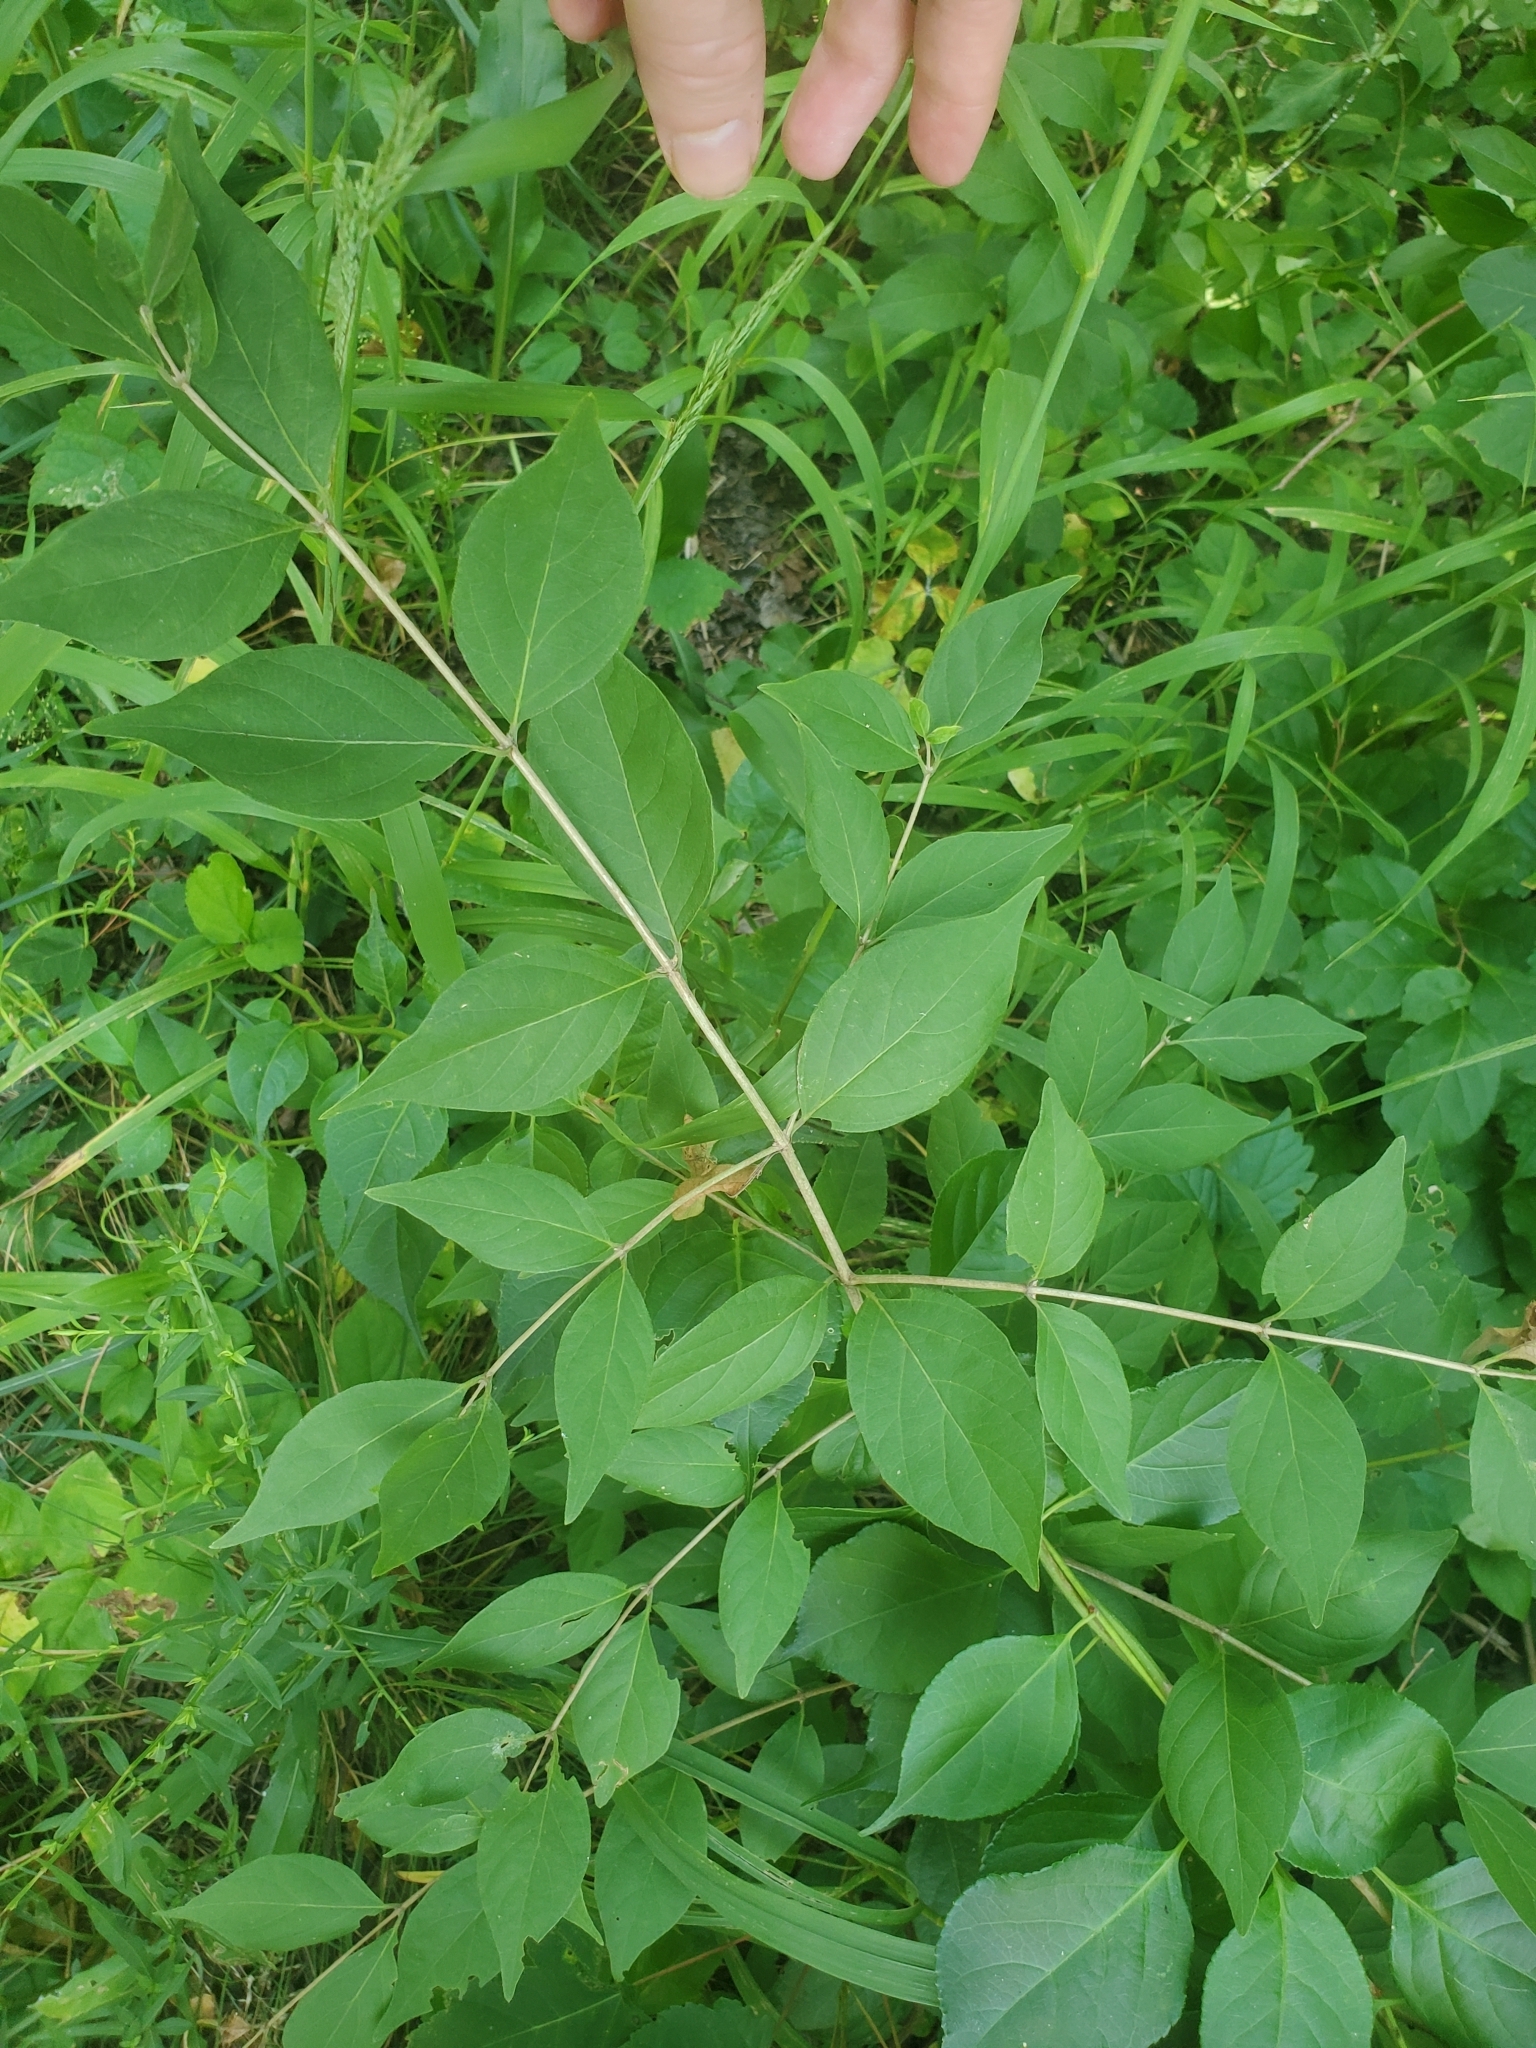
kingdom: Plantae
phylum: Tracheophyta
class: Magnoliopsida
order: Dipsacales
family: Caprifoliaceae
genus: Lonicera
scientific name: Lonicera maackii
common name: Amur honeysuckle
